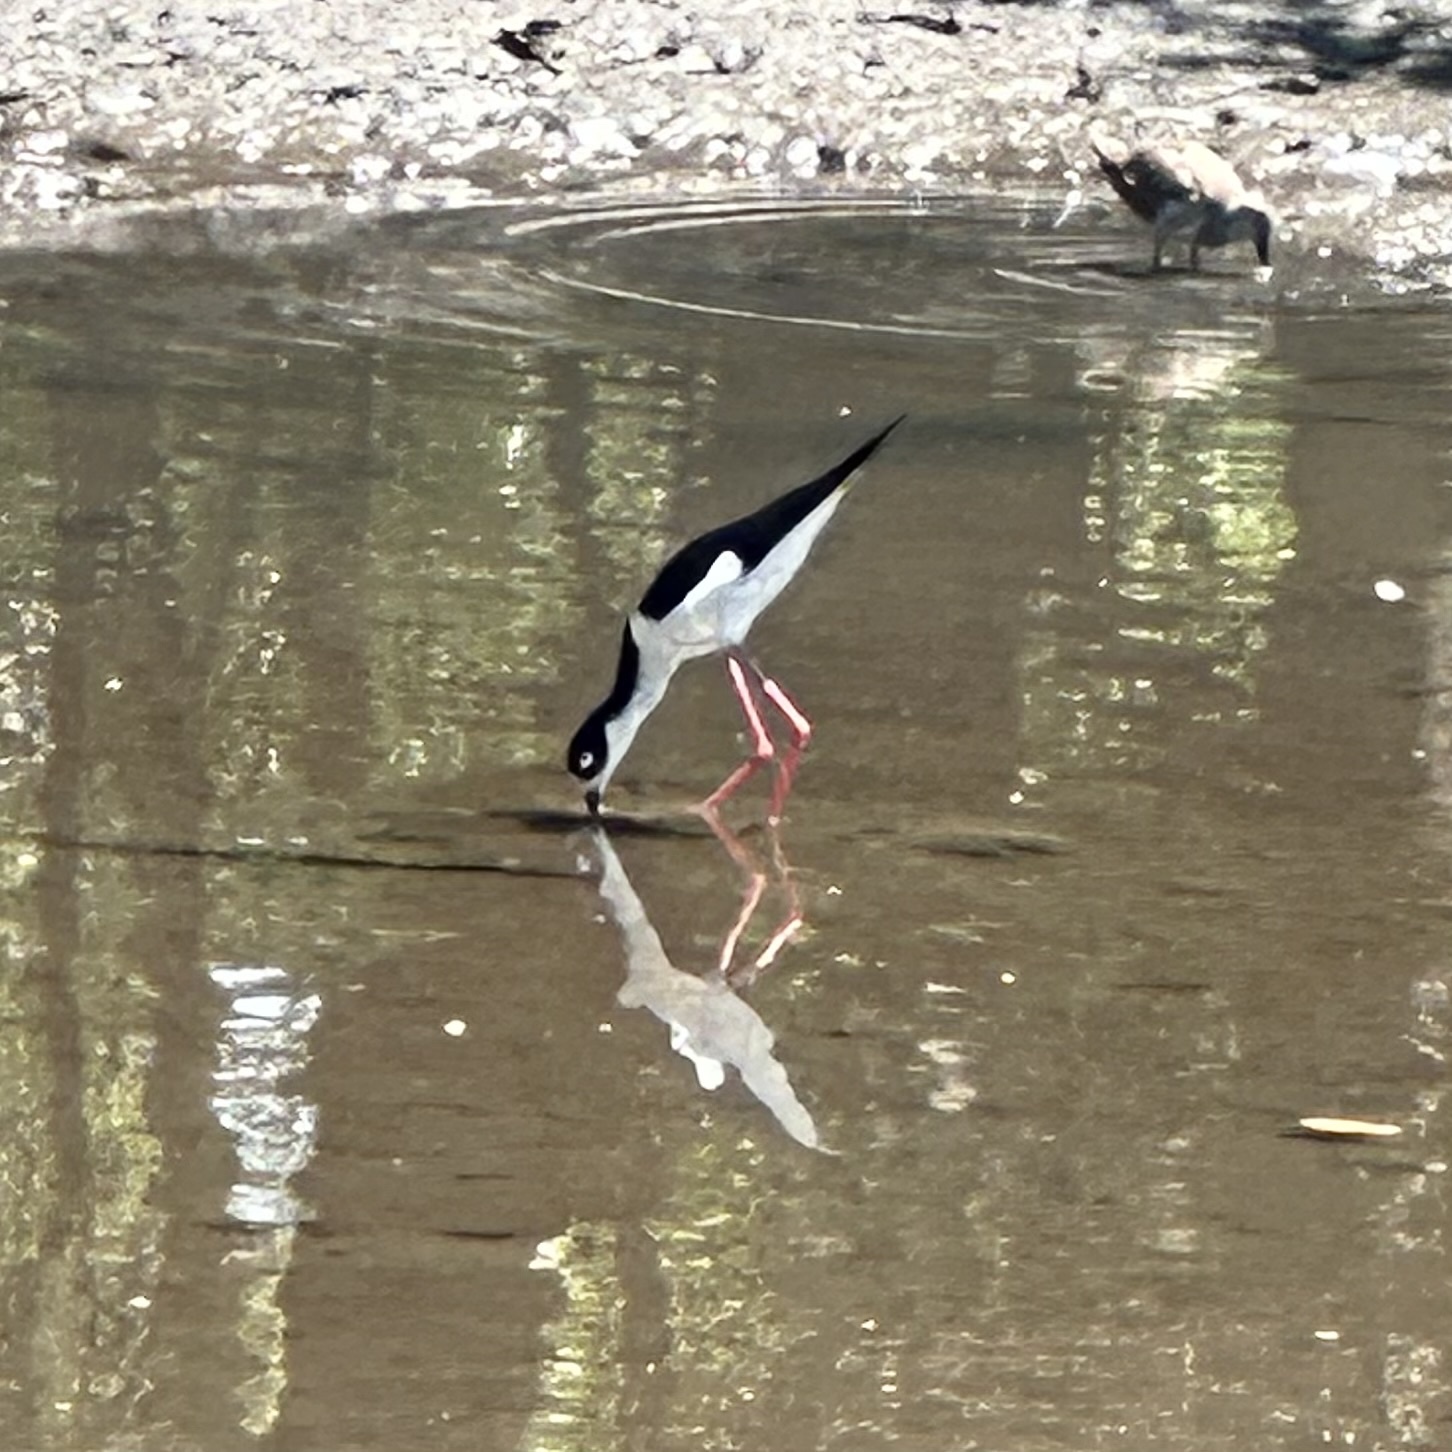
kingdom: Animalia
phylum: Chordata
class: Aves
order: Charadriiformes
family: Recurvirostridae
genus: Himantopus
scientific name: Himantopus mexicanus
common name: Black-necked stilt
